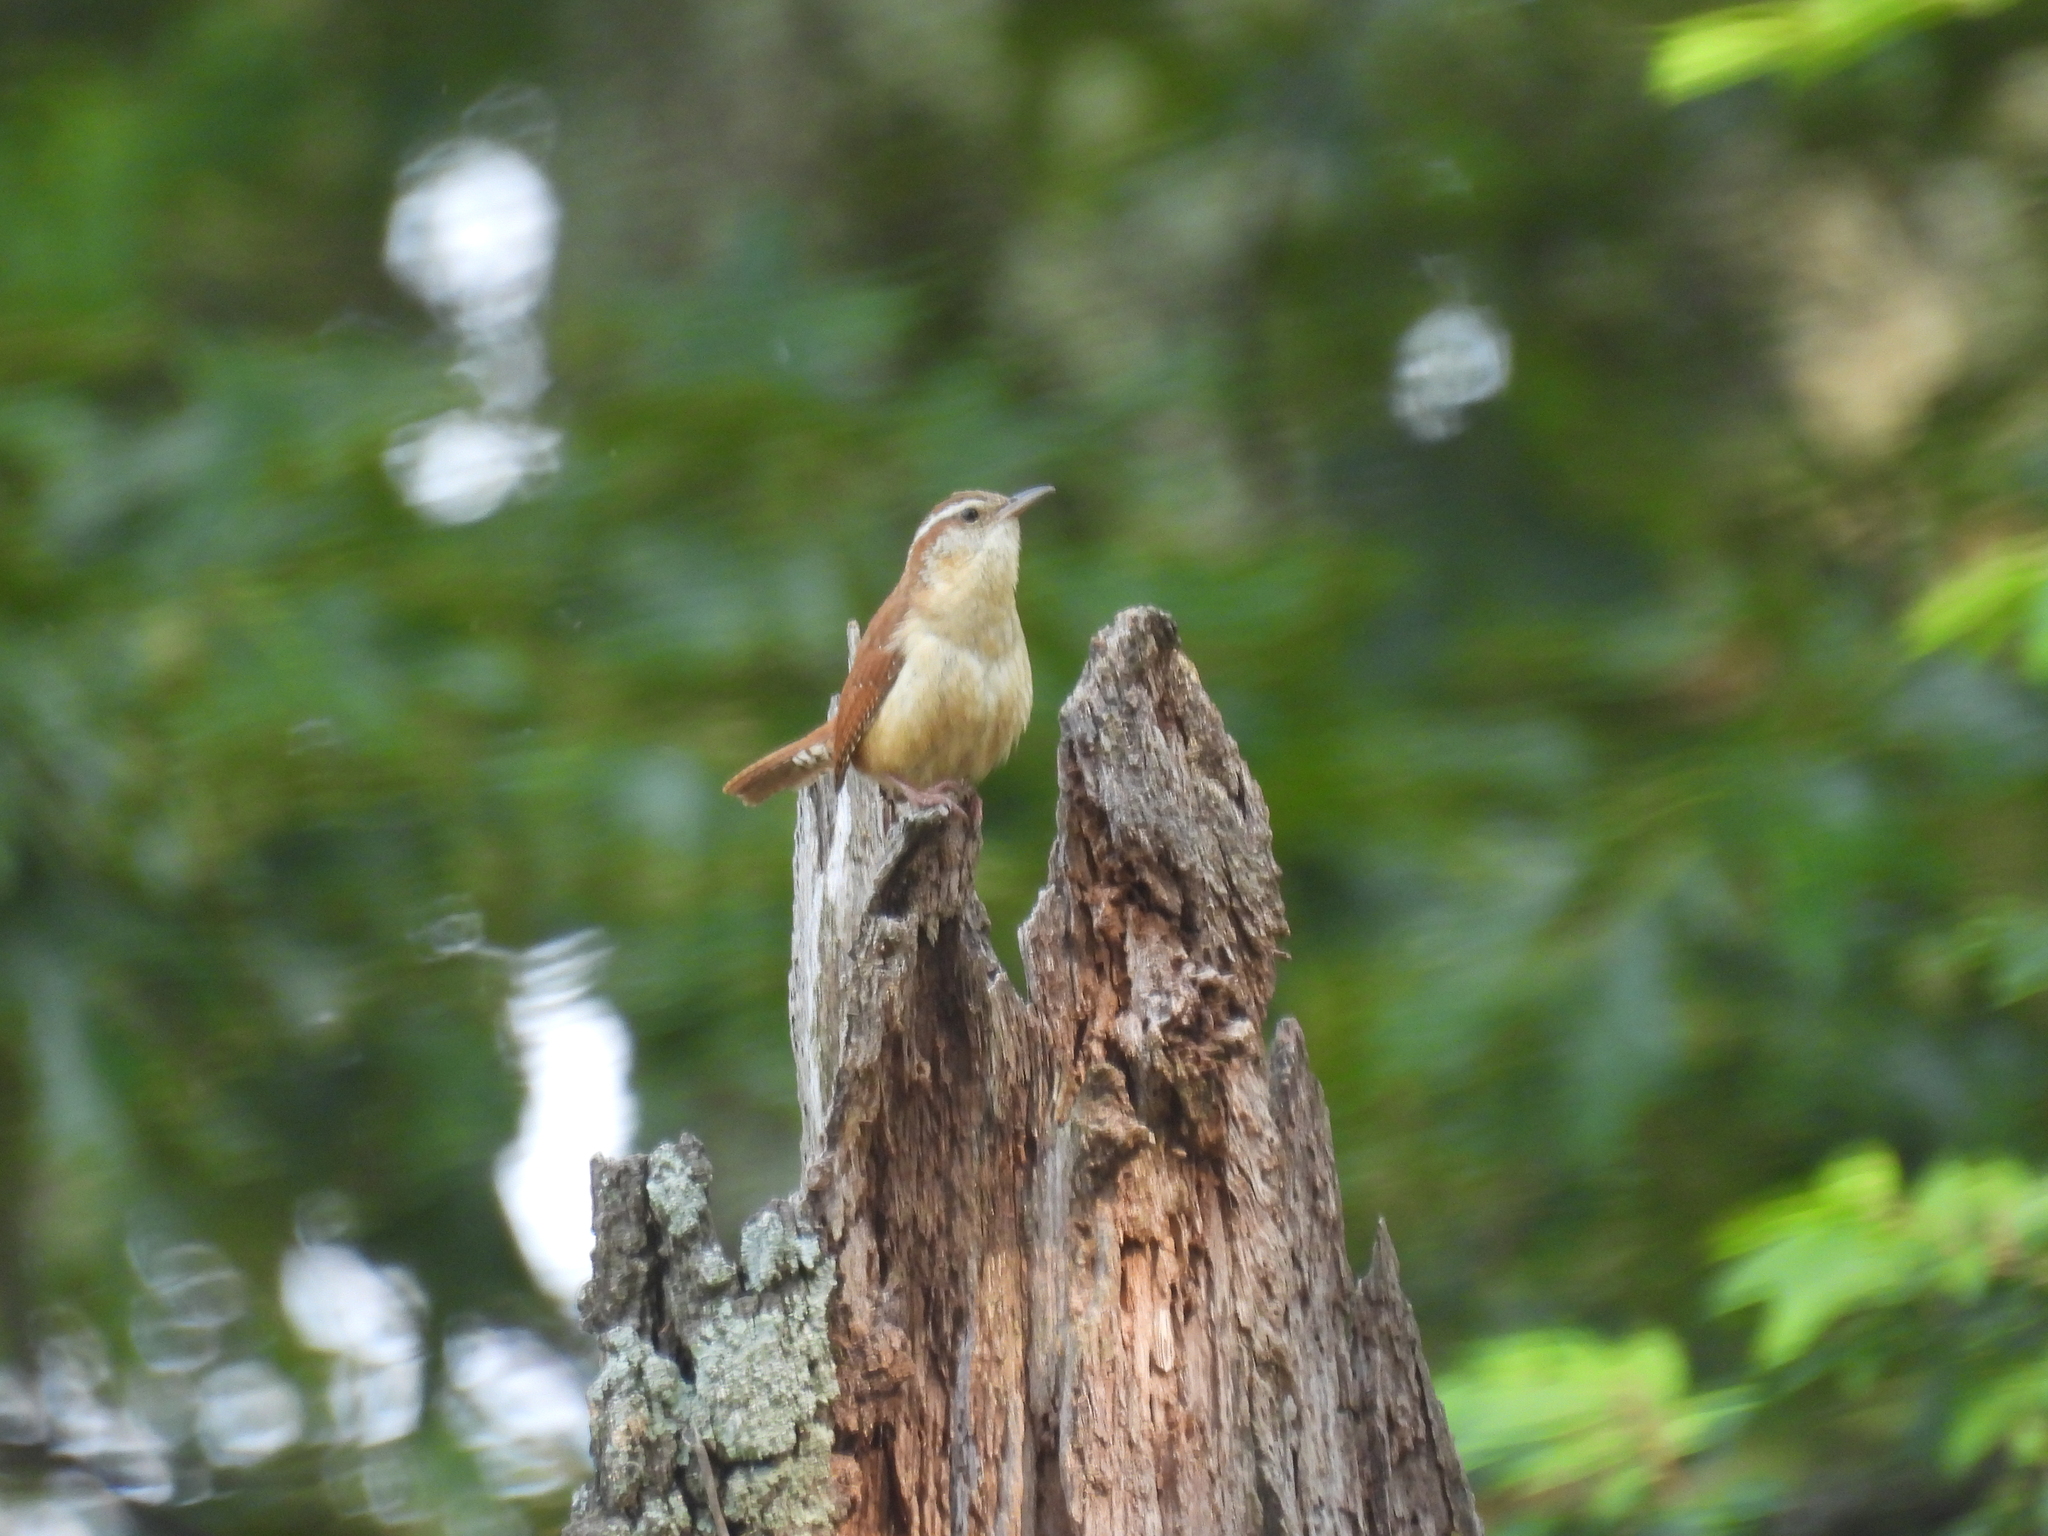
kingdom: Animalia
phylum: Chordata
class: Aves
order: Passeriformes
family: Troglodytidae
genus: Thryothorus
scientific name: Thryothorus ludovicianus
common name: Carolina wren
